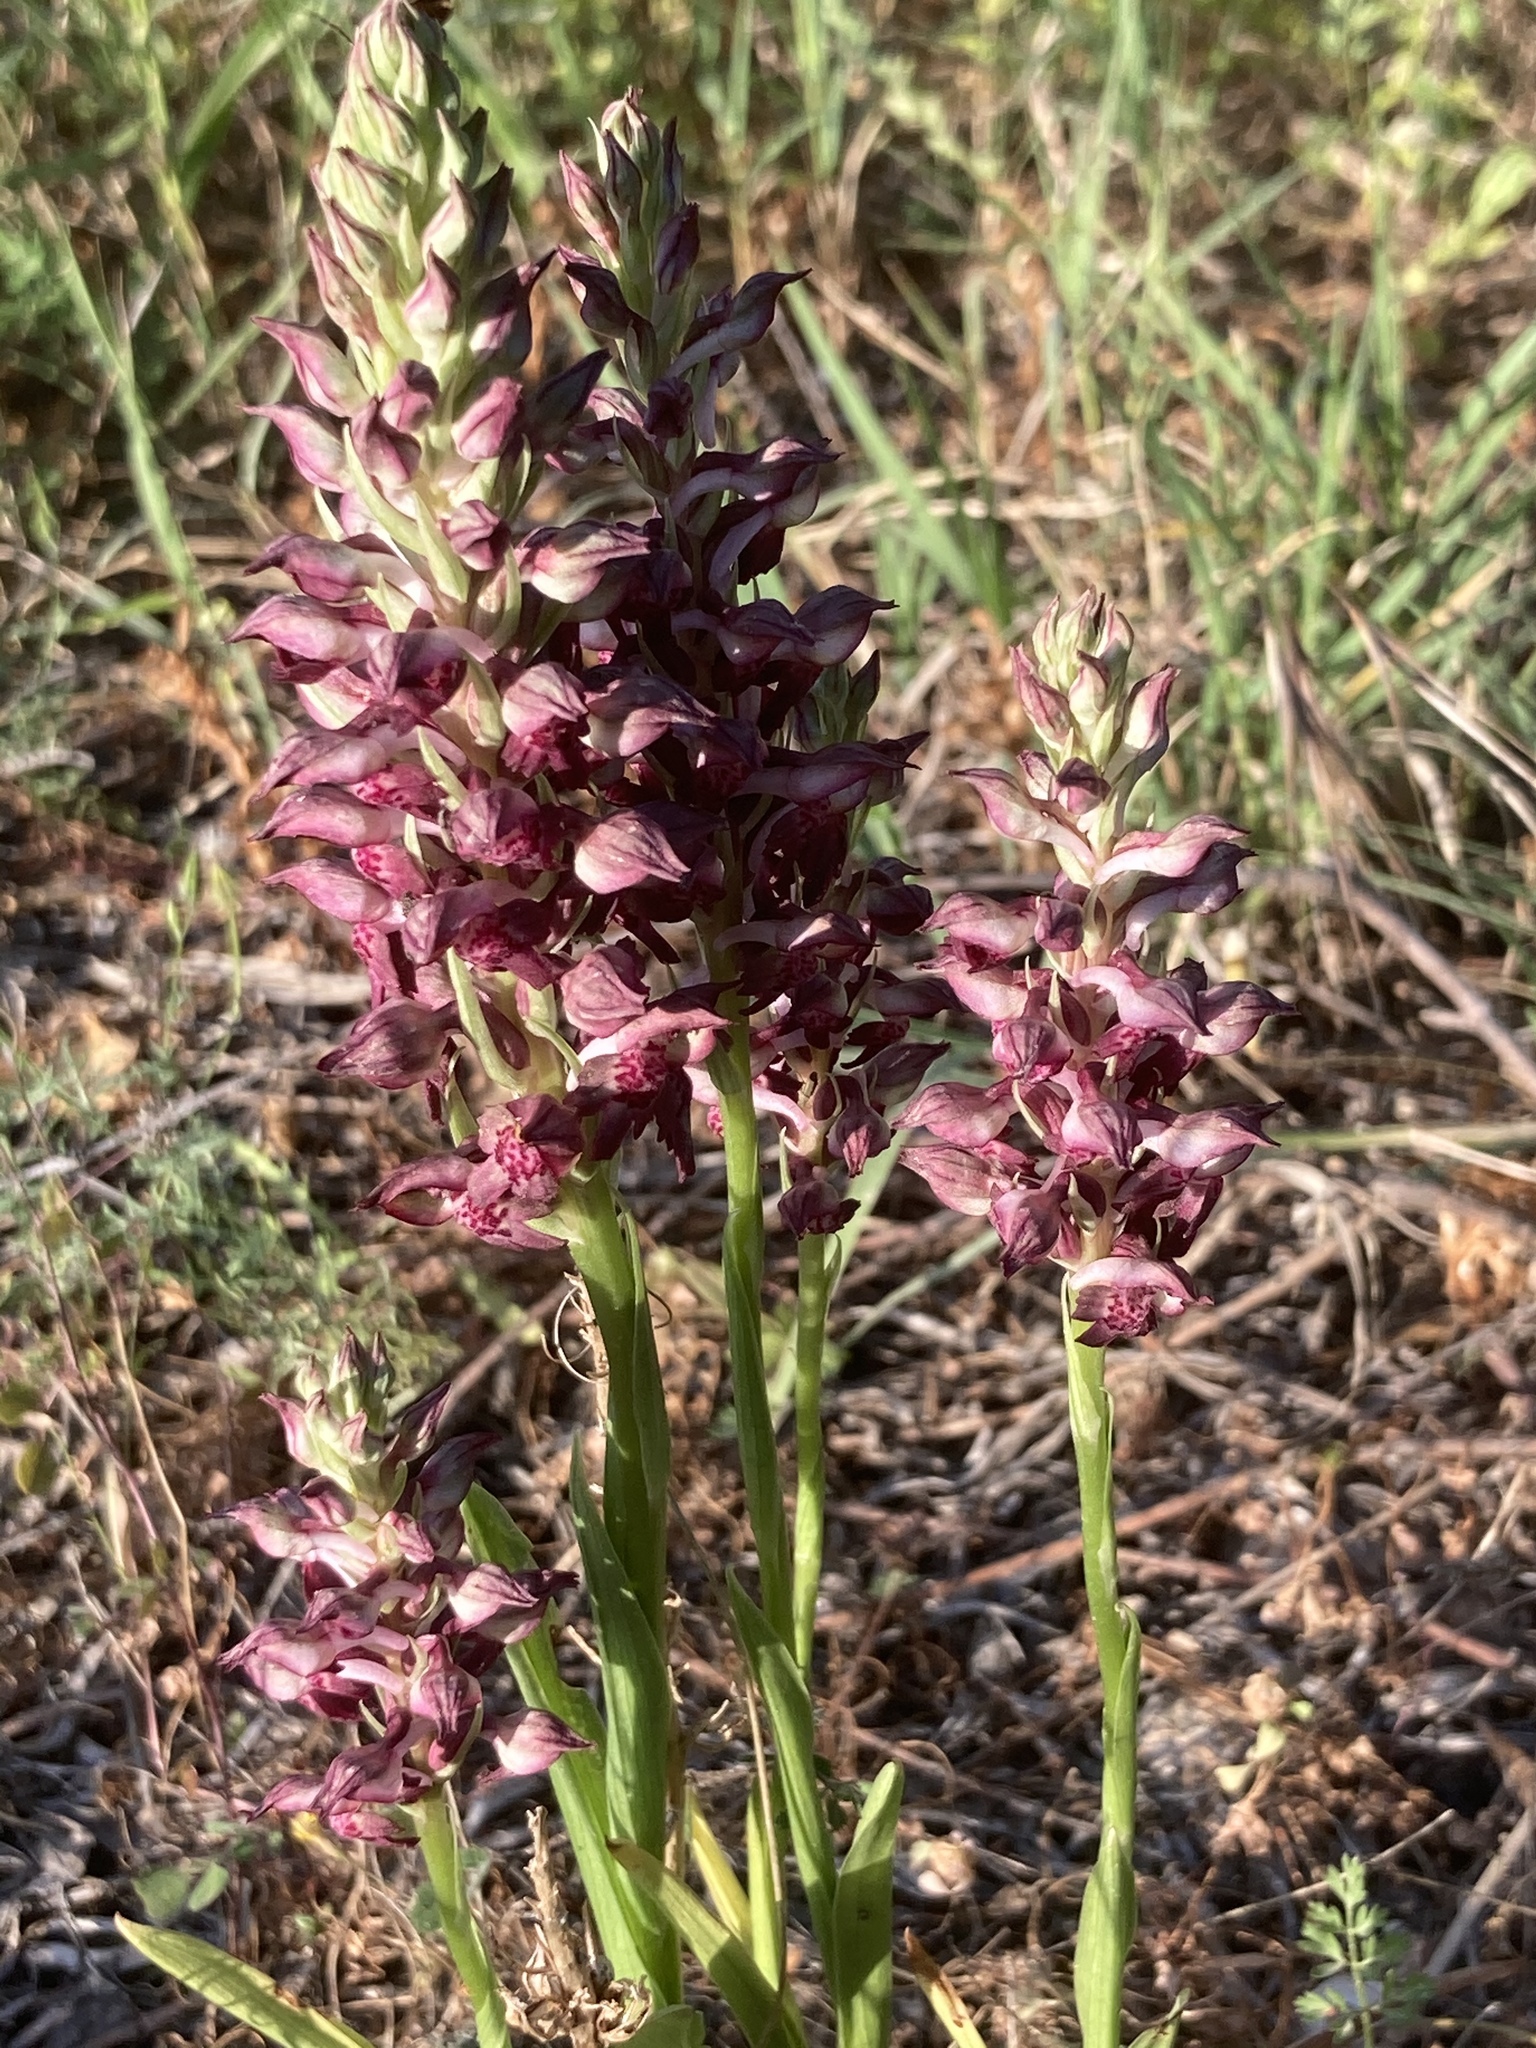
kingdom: Plantae
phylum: Tracheophyta
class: Liliopsida
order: Asparagales
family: Orchidaceae
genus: Anacamptis
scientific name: Anacamptis coriophora
